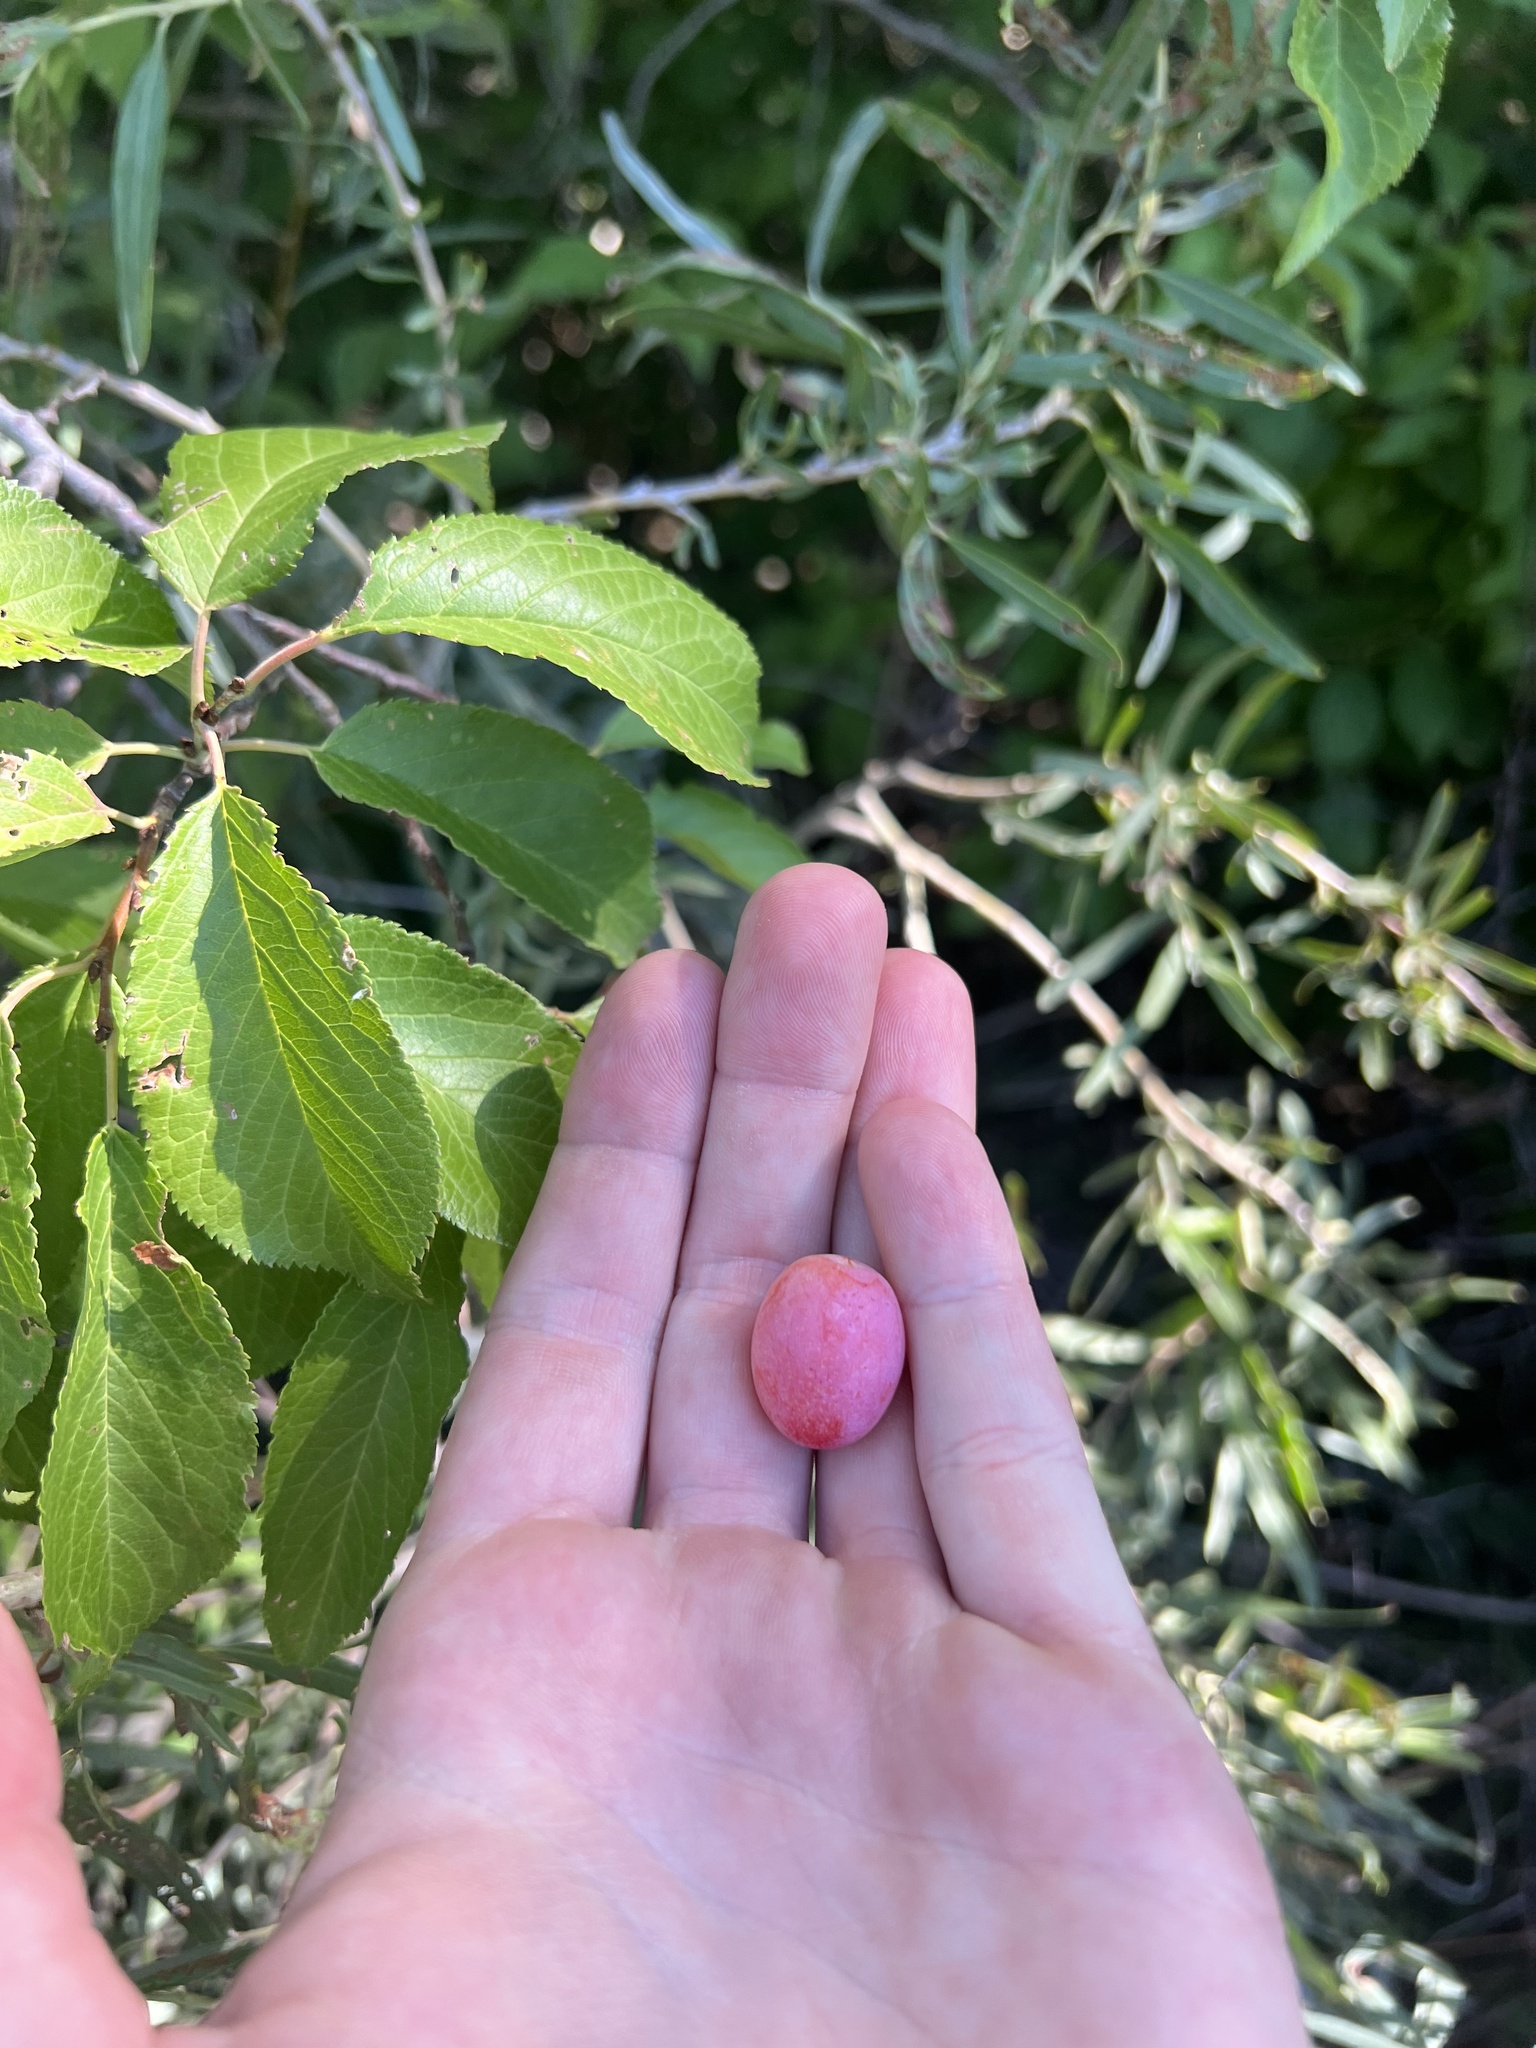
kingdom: Plantae
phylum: Tracheophyta
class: Magnoliopsida
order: Rosales
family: Rosaceae
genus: Prunus
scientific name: Prunus americana
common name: American plum
